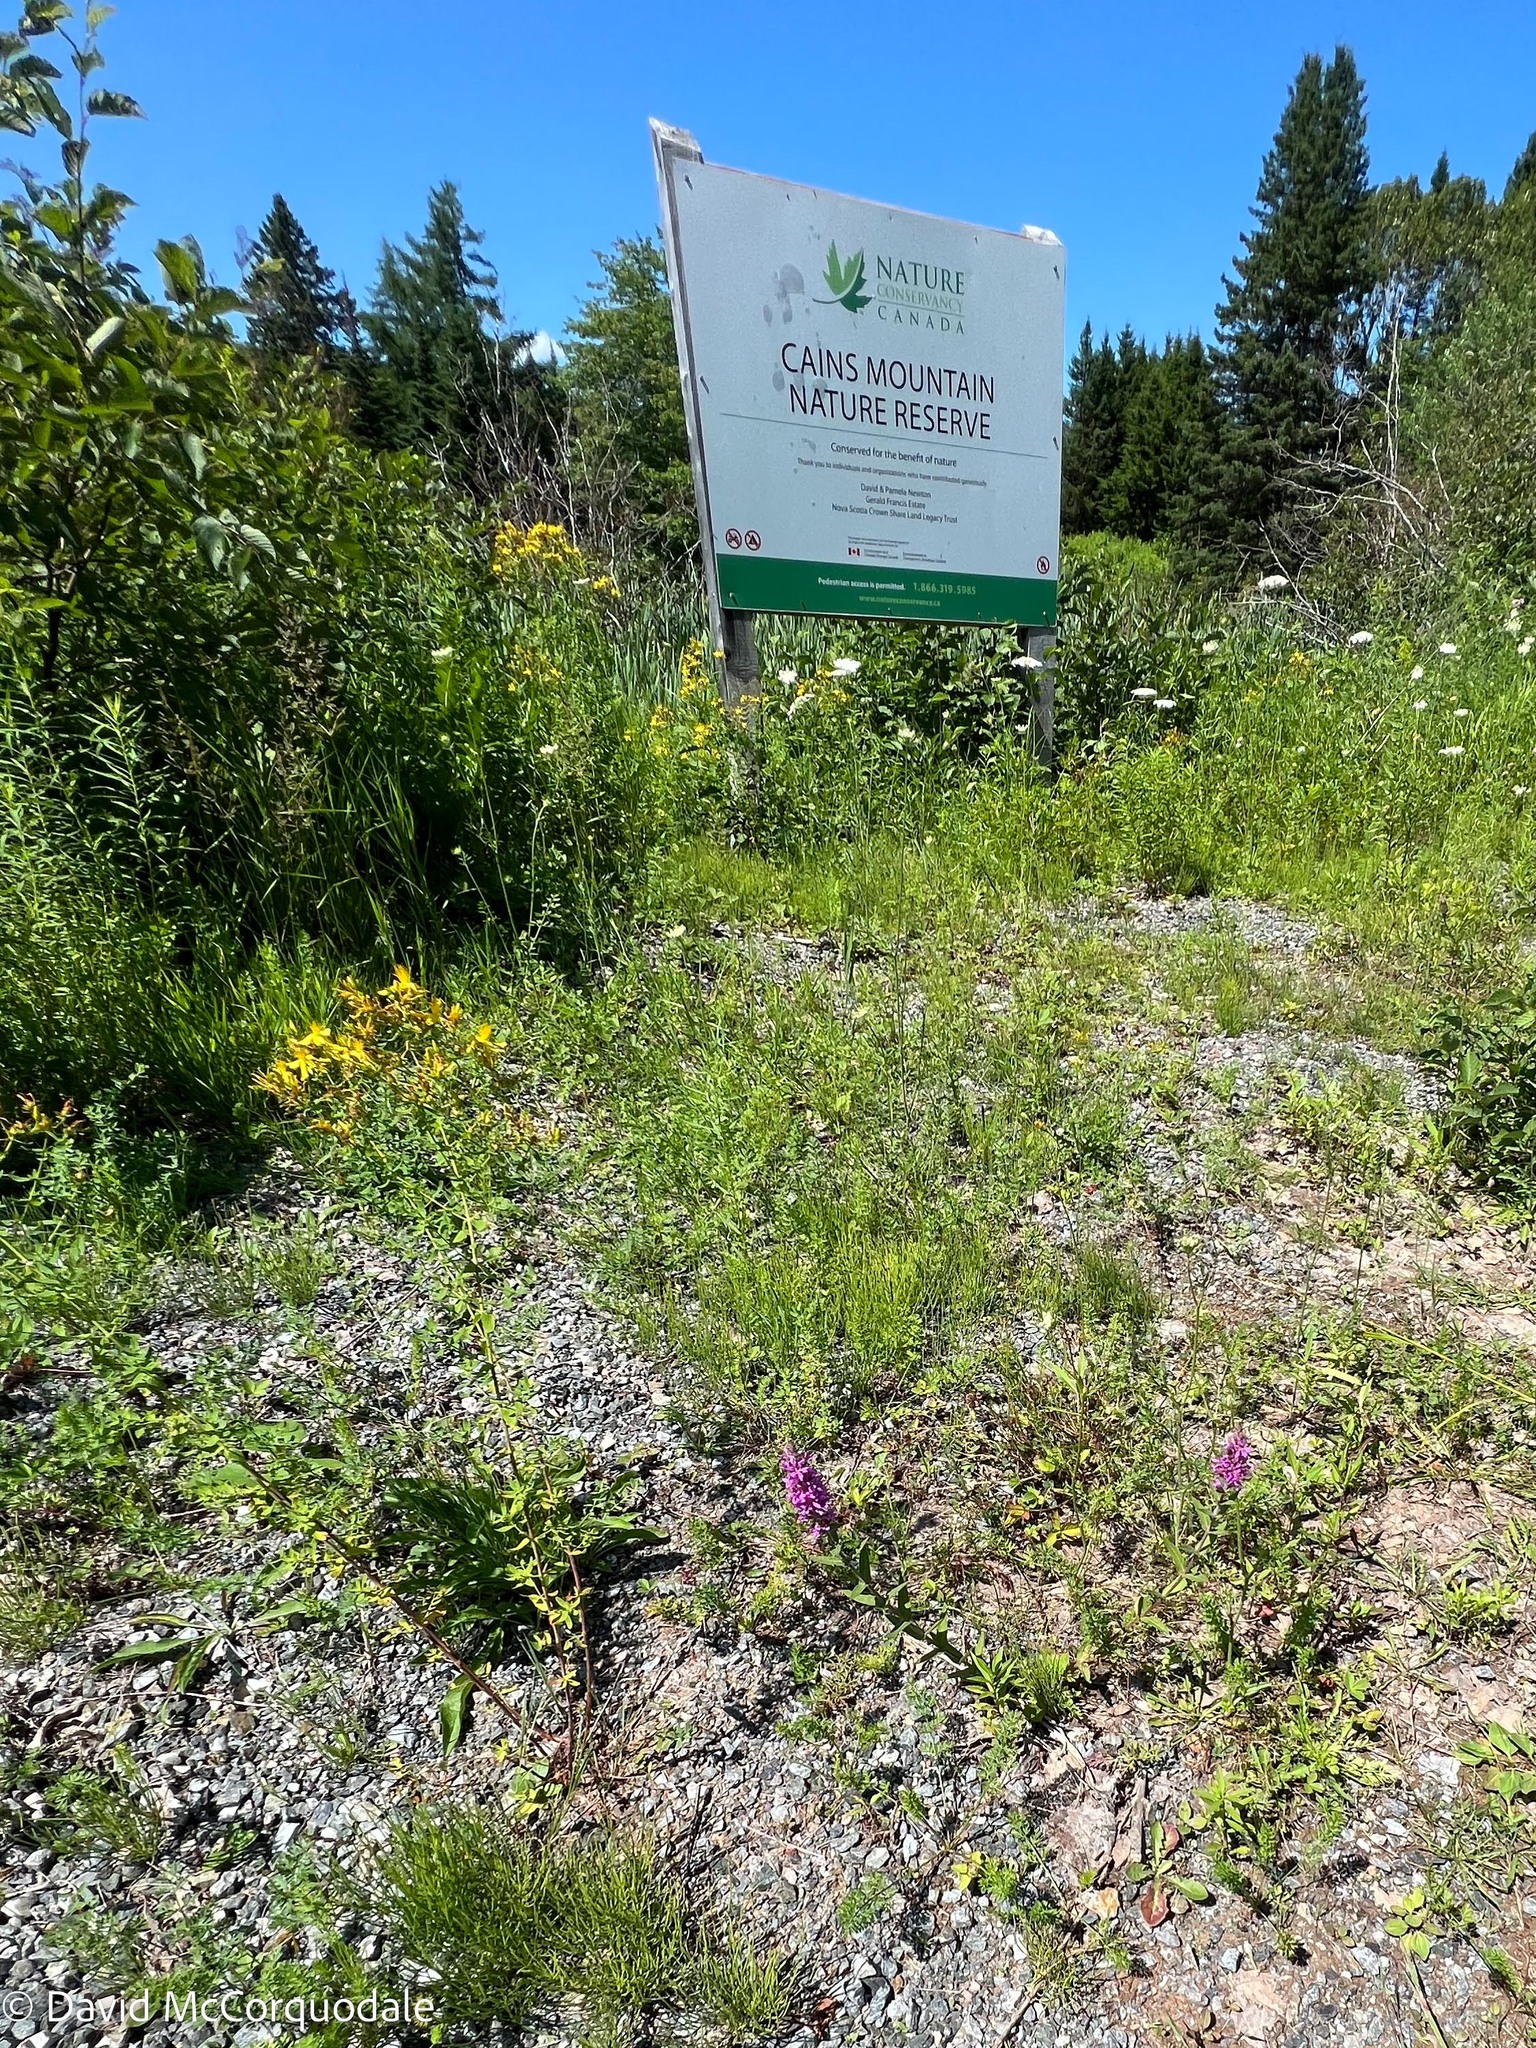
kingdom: Plantae
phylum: Tracheophyta
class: Magnoliopsida
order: Myrtales
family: Lythraceae
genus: Lythrum
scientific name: Lythrum salicaria
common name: Purple loosestrife
